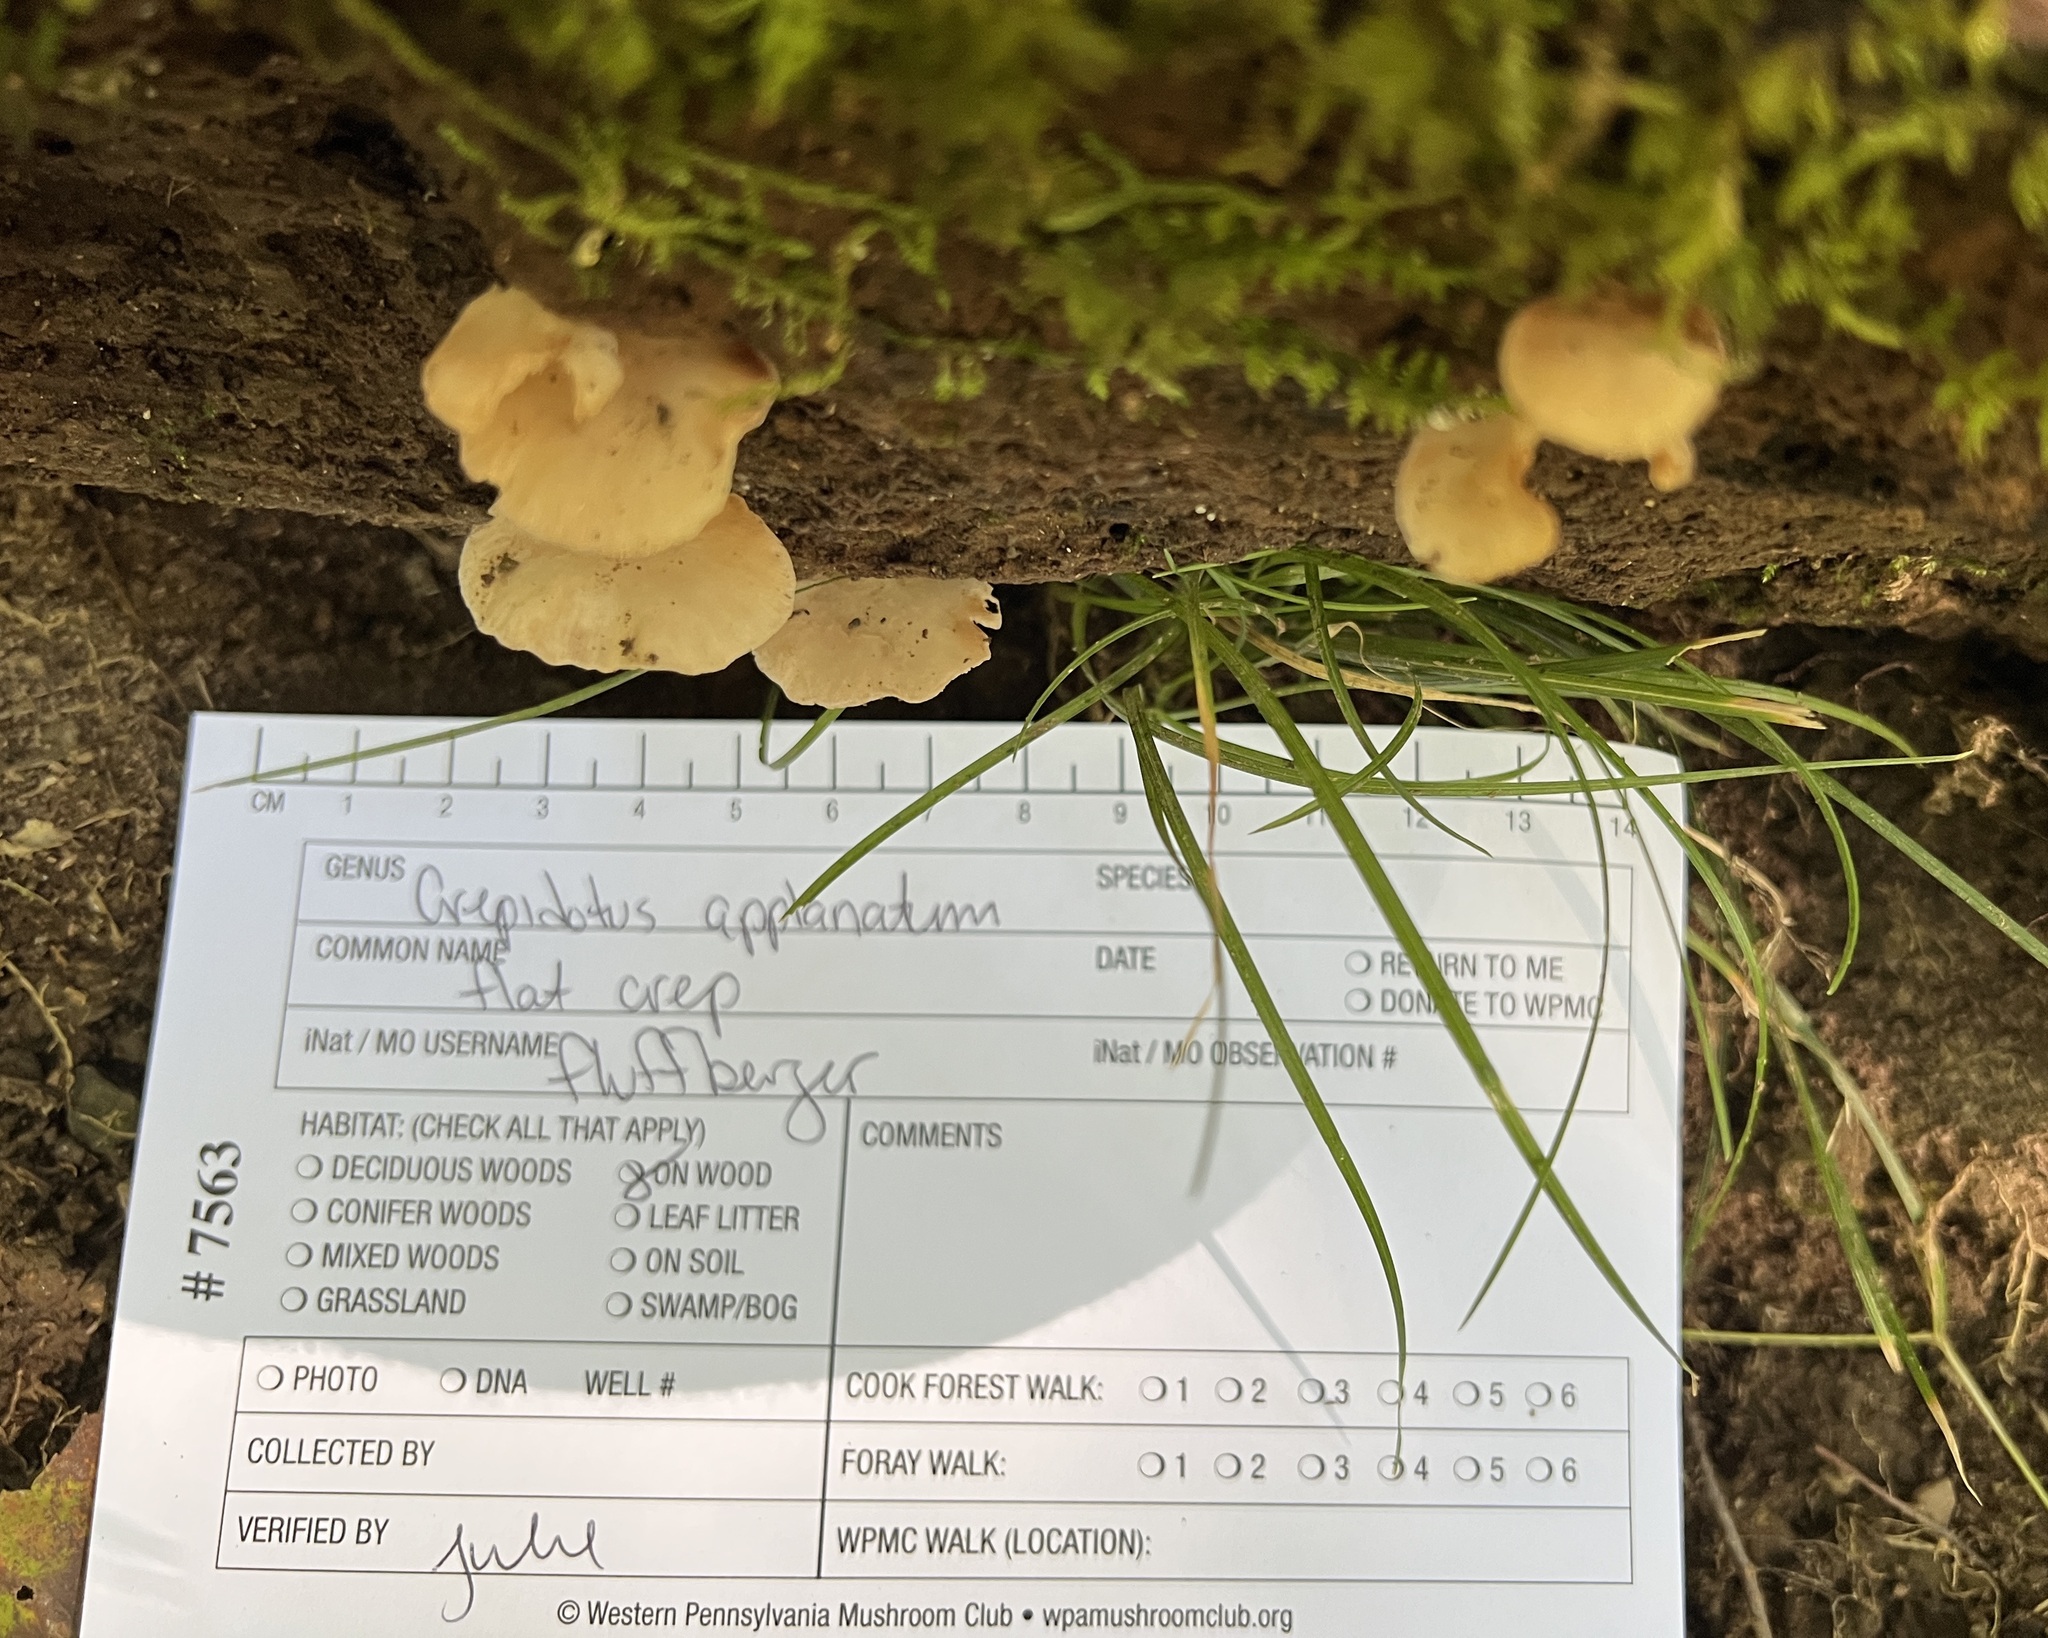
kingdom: Fungi
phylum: Basidiomycota
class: Agaricomycetes
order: Agaricales
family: Crepidotaceae
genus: Crepidotus
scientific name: Crepidotus applanatus
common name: Flat crep
